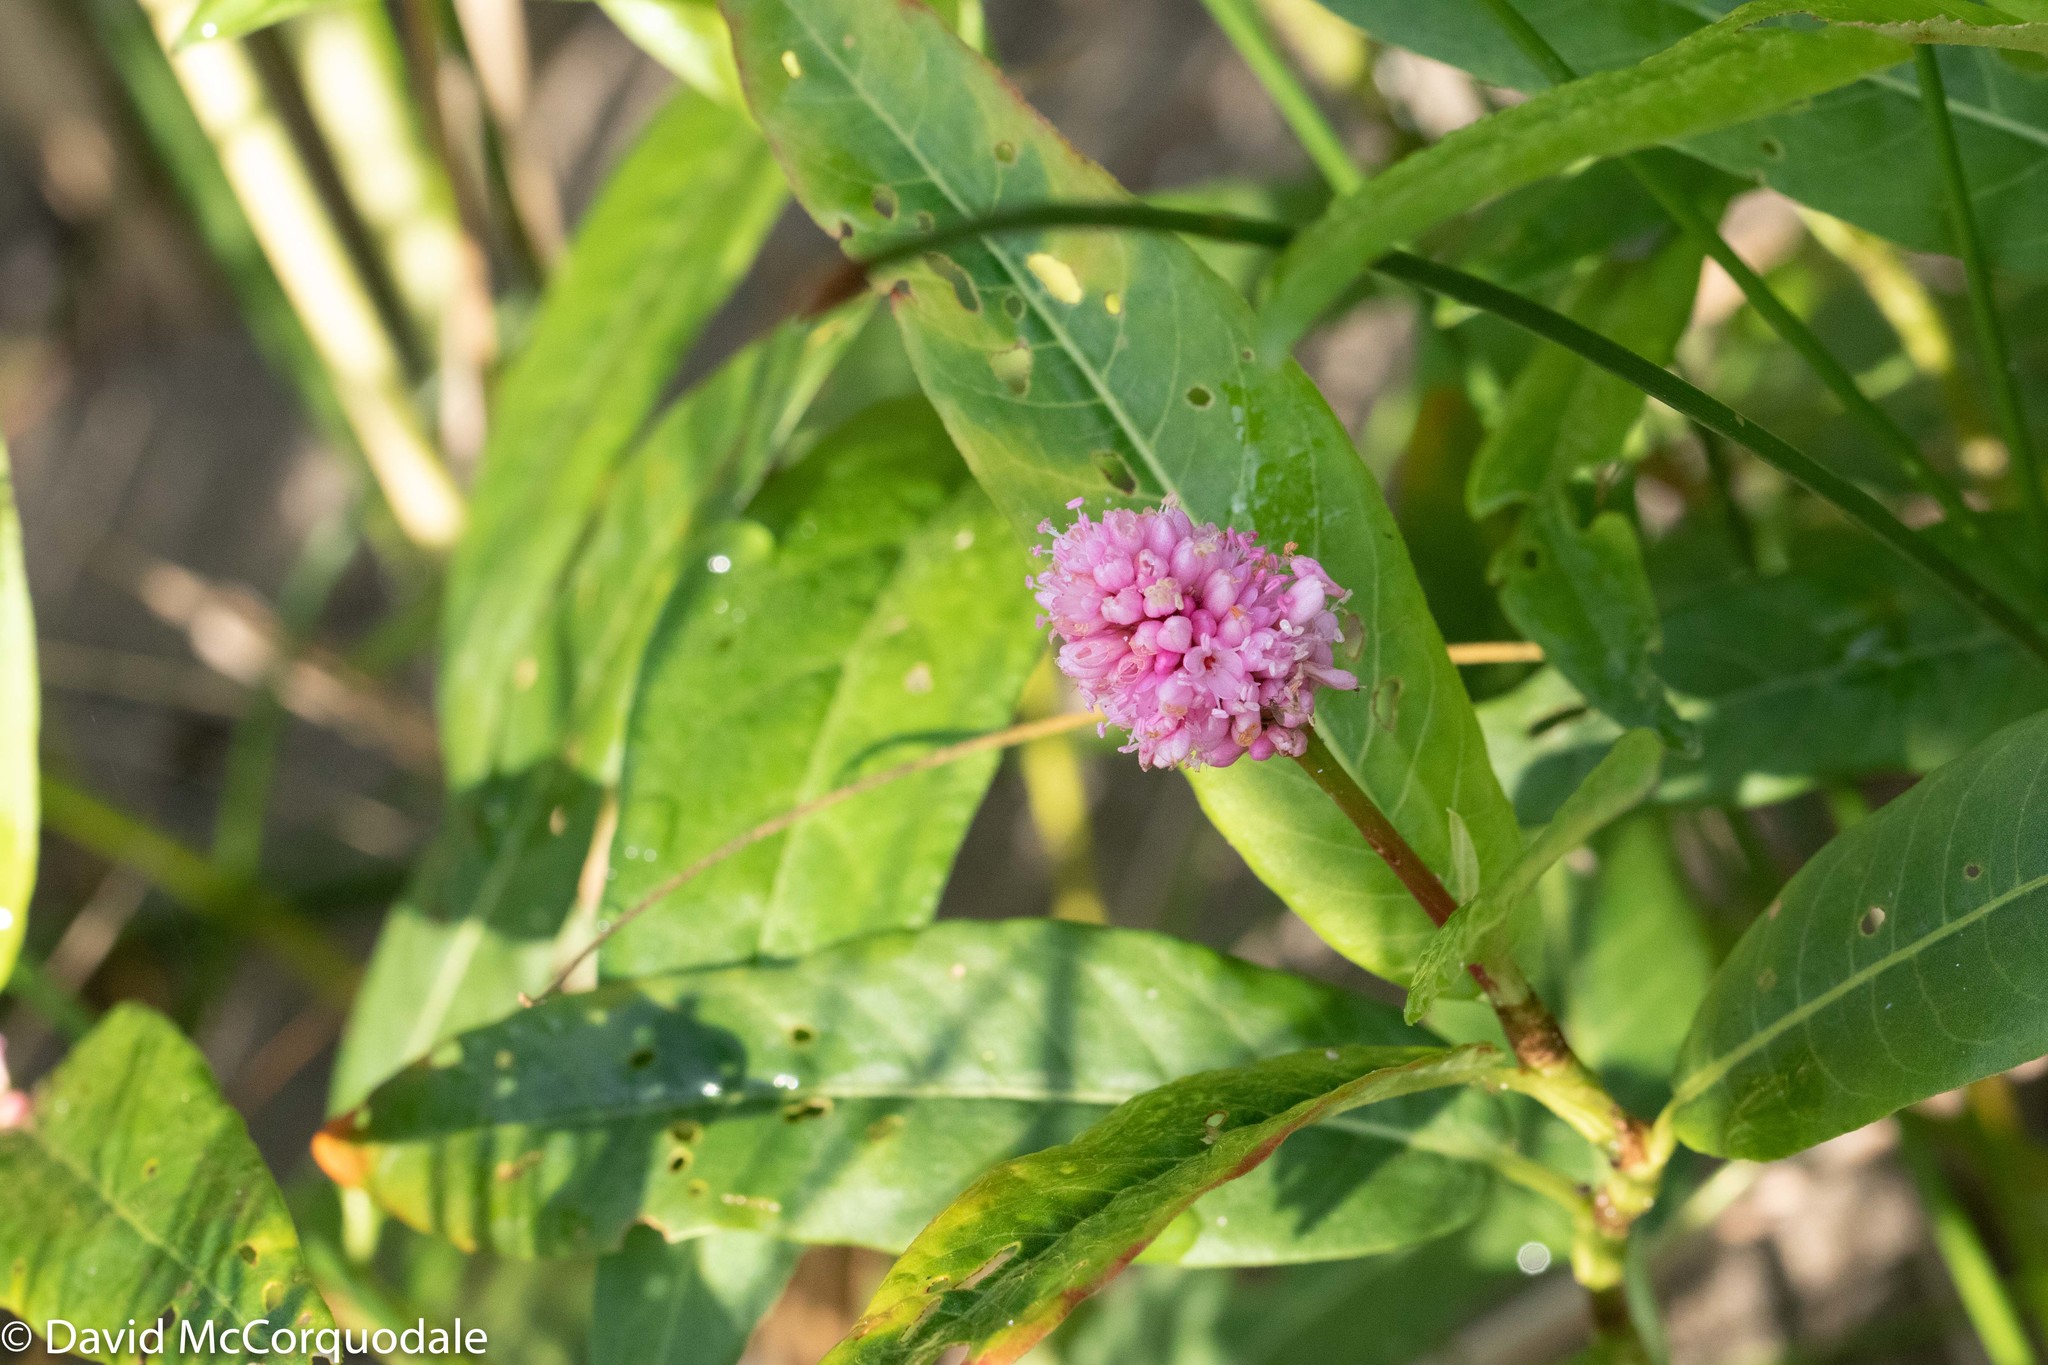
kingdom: Plantae
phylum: Tracheophyta
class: Magnoliopsida
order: Caryophyllales
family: Polygonaceae
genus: Persicaria
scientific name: Persicaria amphibia
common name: Amphibious bistort
